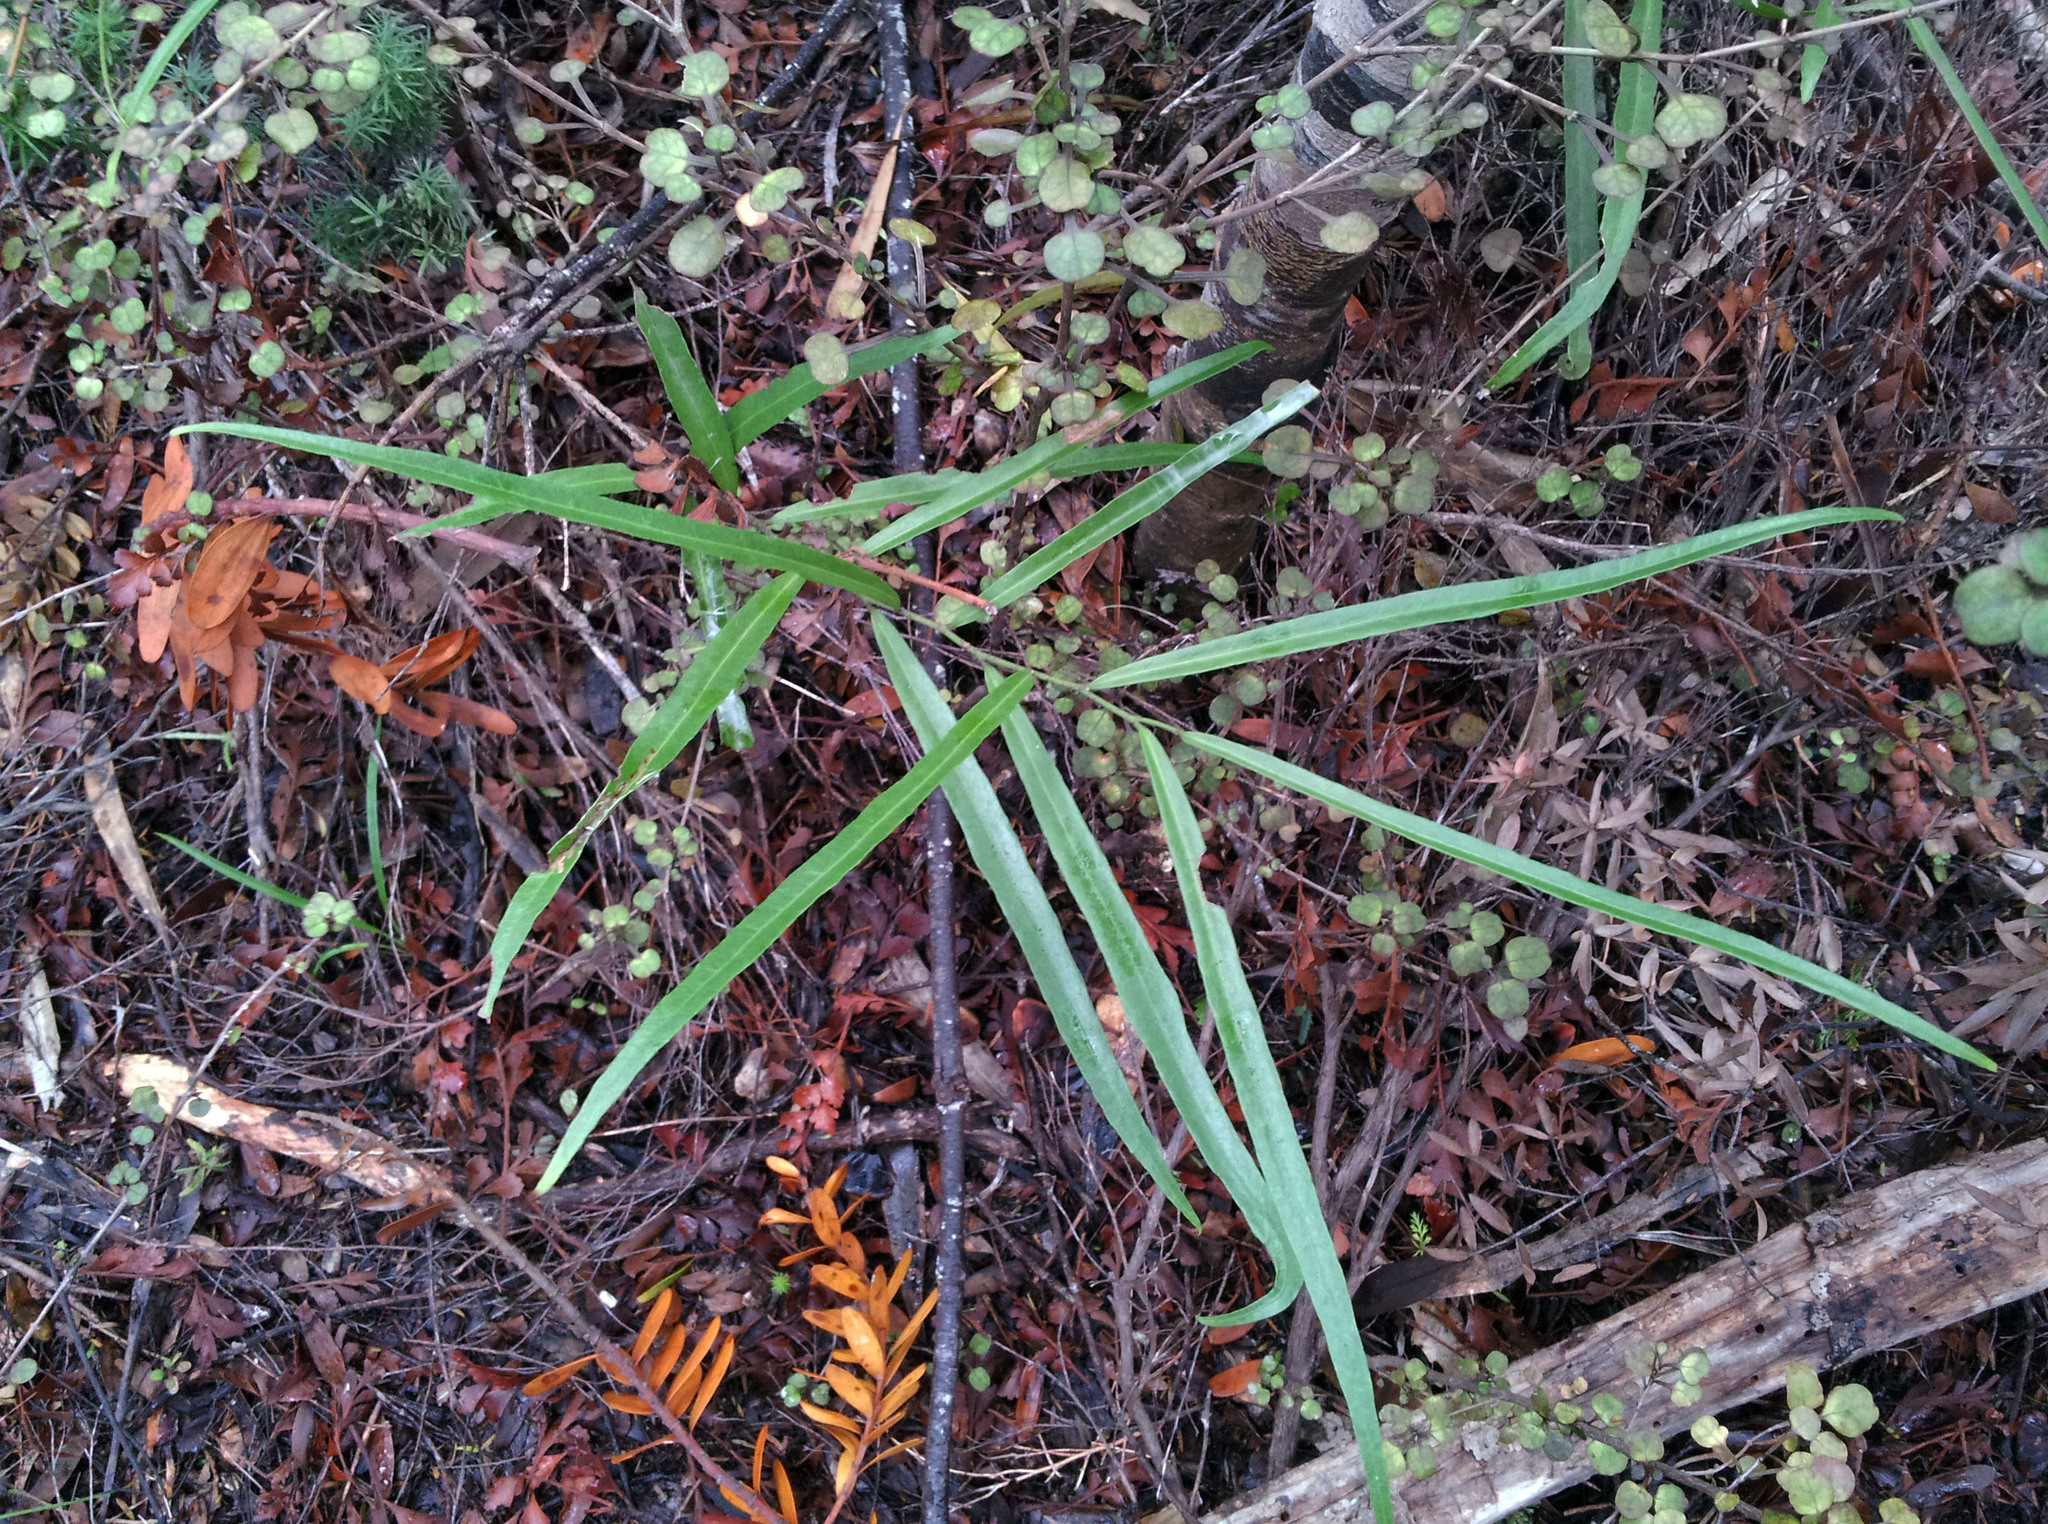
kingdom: Plantae
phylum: Tracheophyta
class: Magnoliopsida
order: Gentianales
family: Rubiaceae
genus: Coprosma
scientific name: Coprosma spathulata
